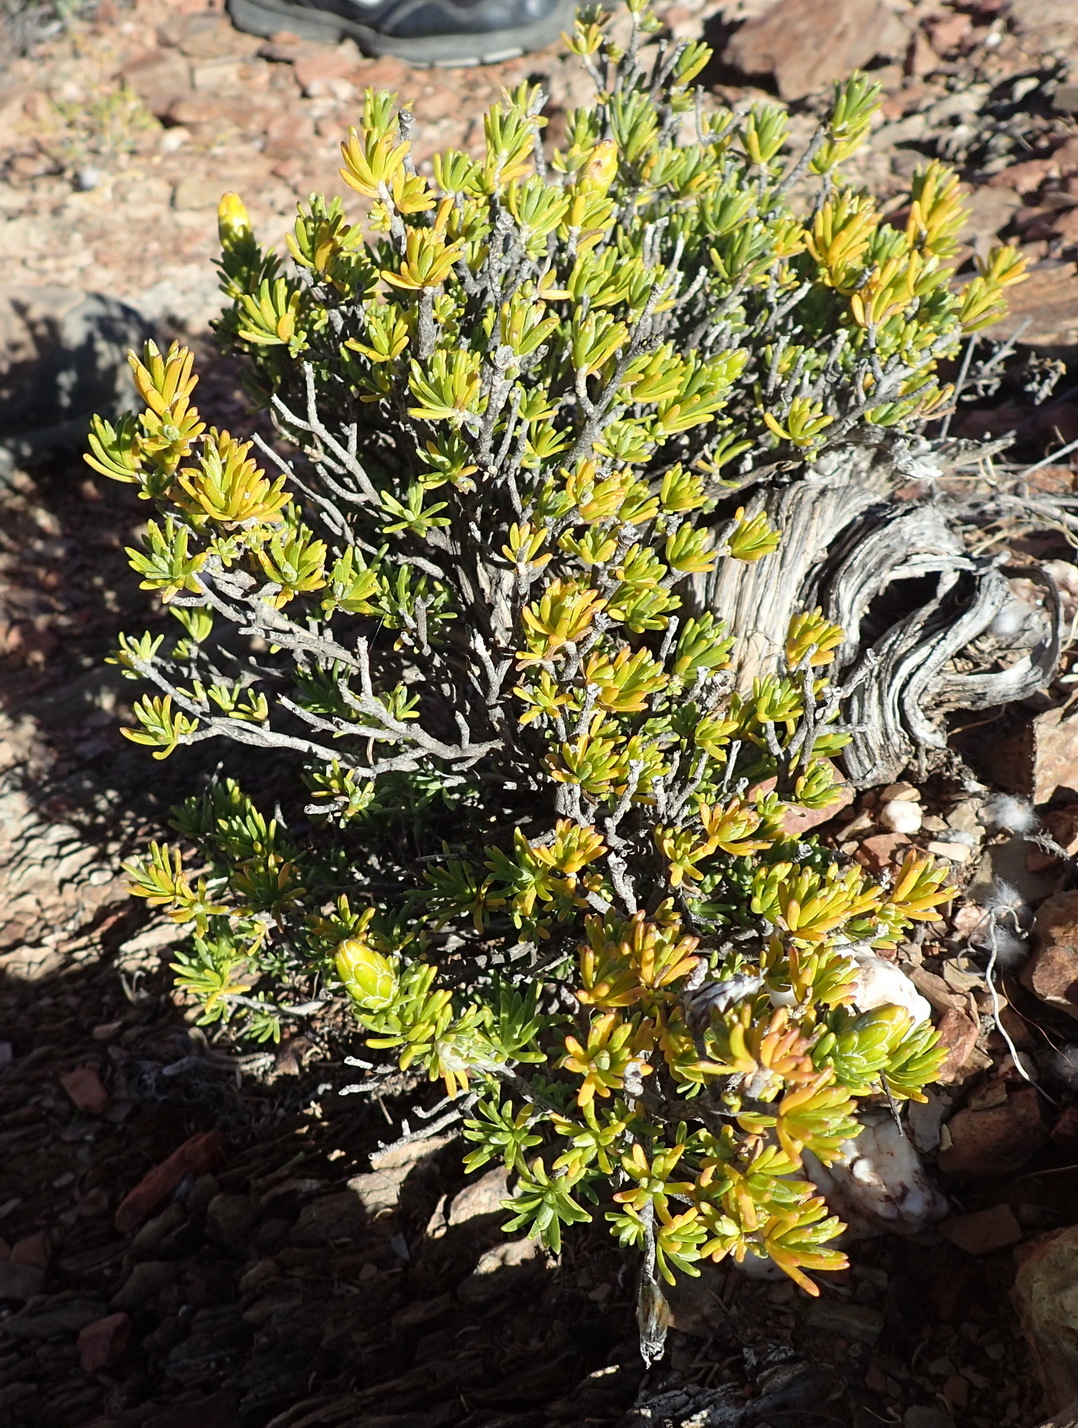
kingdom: Plantae
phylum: Tracheophyta
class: Magnoliopsida
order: Asterales
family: Asteraceae
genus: Pteronia
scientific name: Pteronia ciliata
